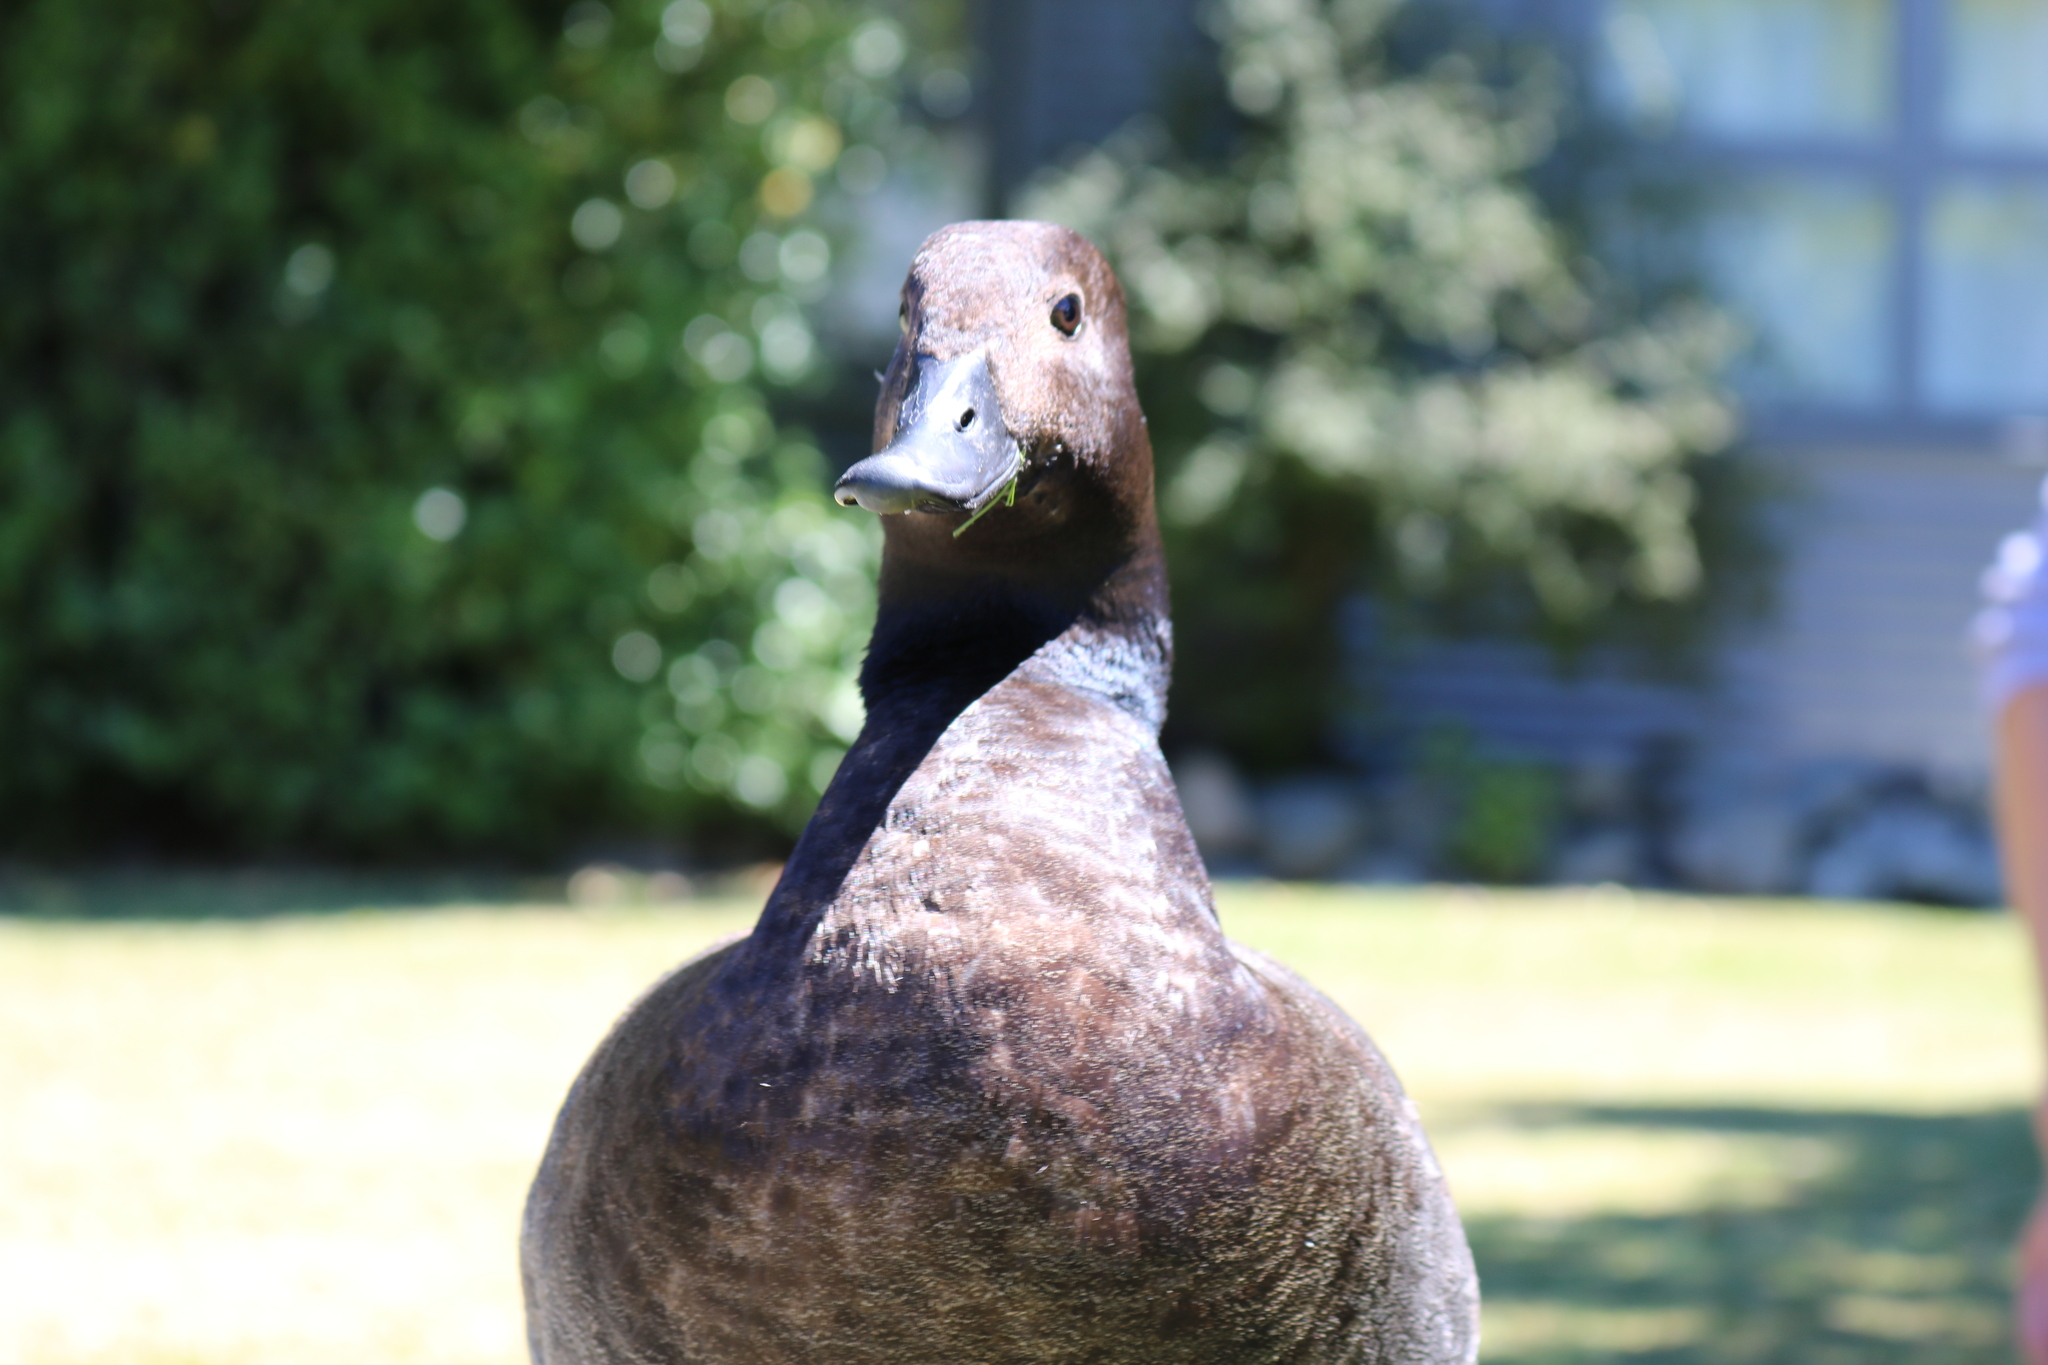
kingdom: Animalia
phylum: Chordata
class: Aves
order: Anseriformes
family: Anatidae
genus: Tadorna
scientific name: Tadorna variegata
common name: Paradise shelduck
